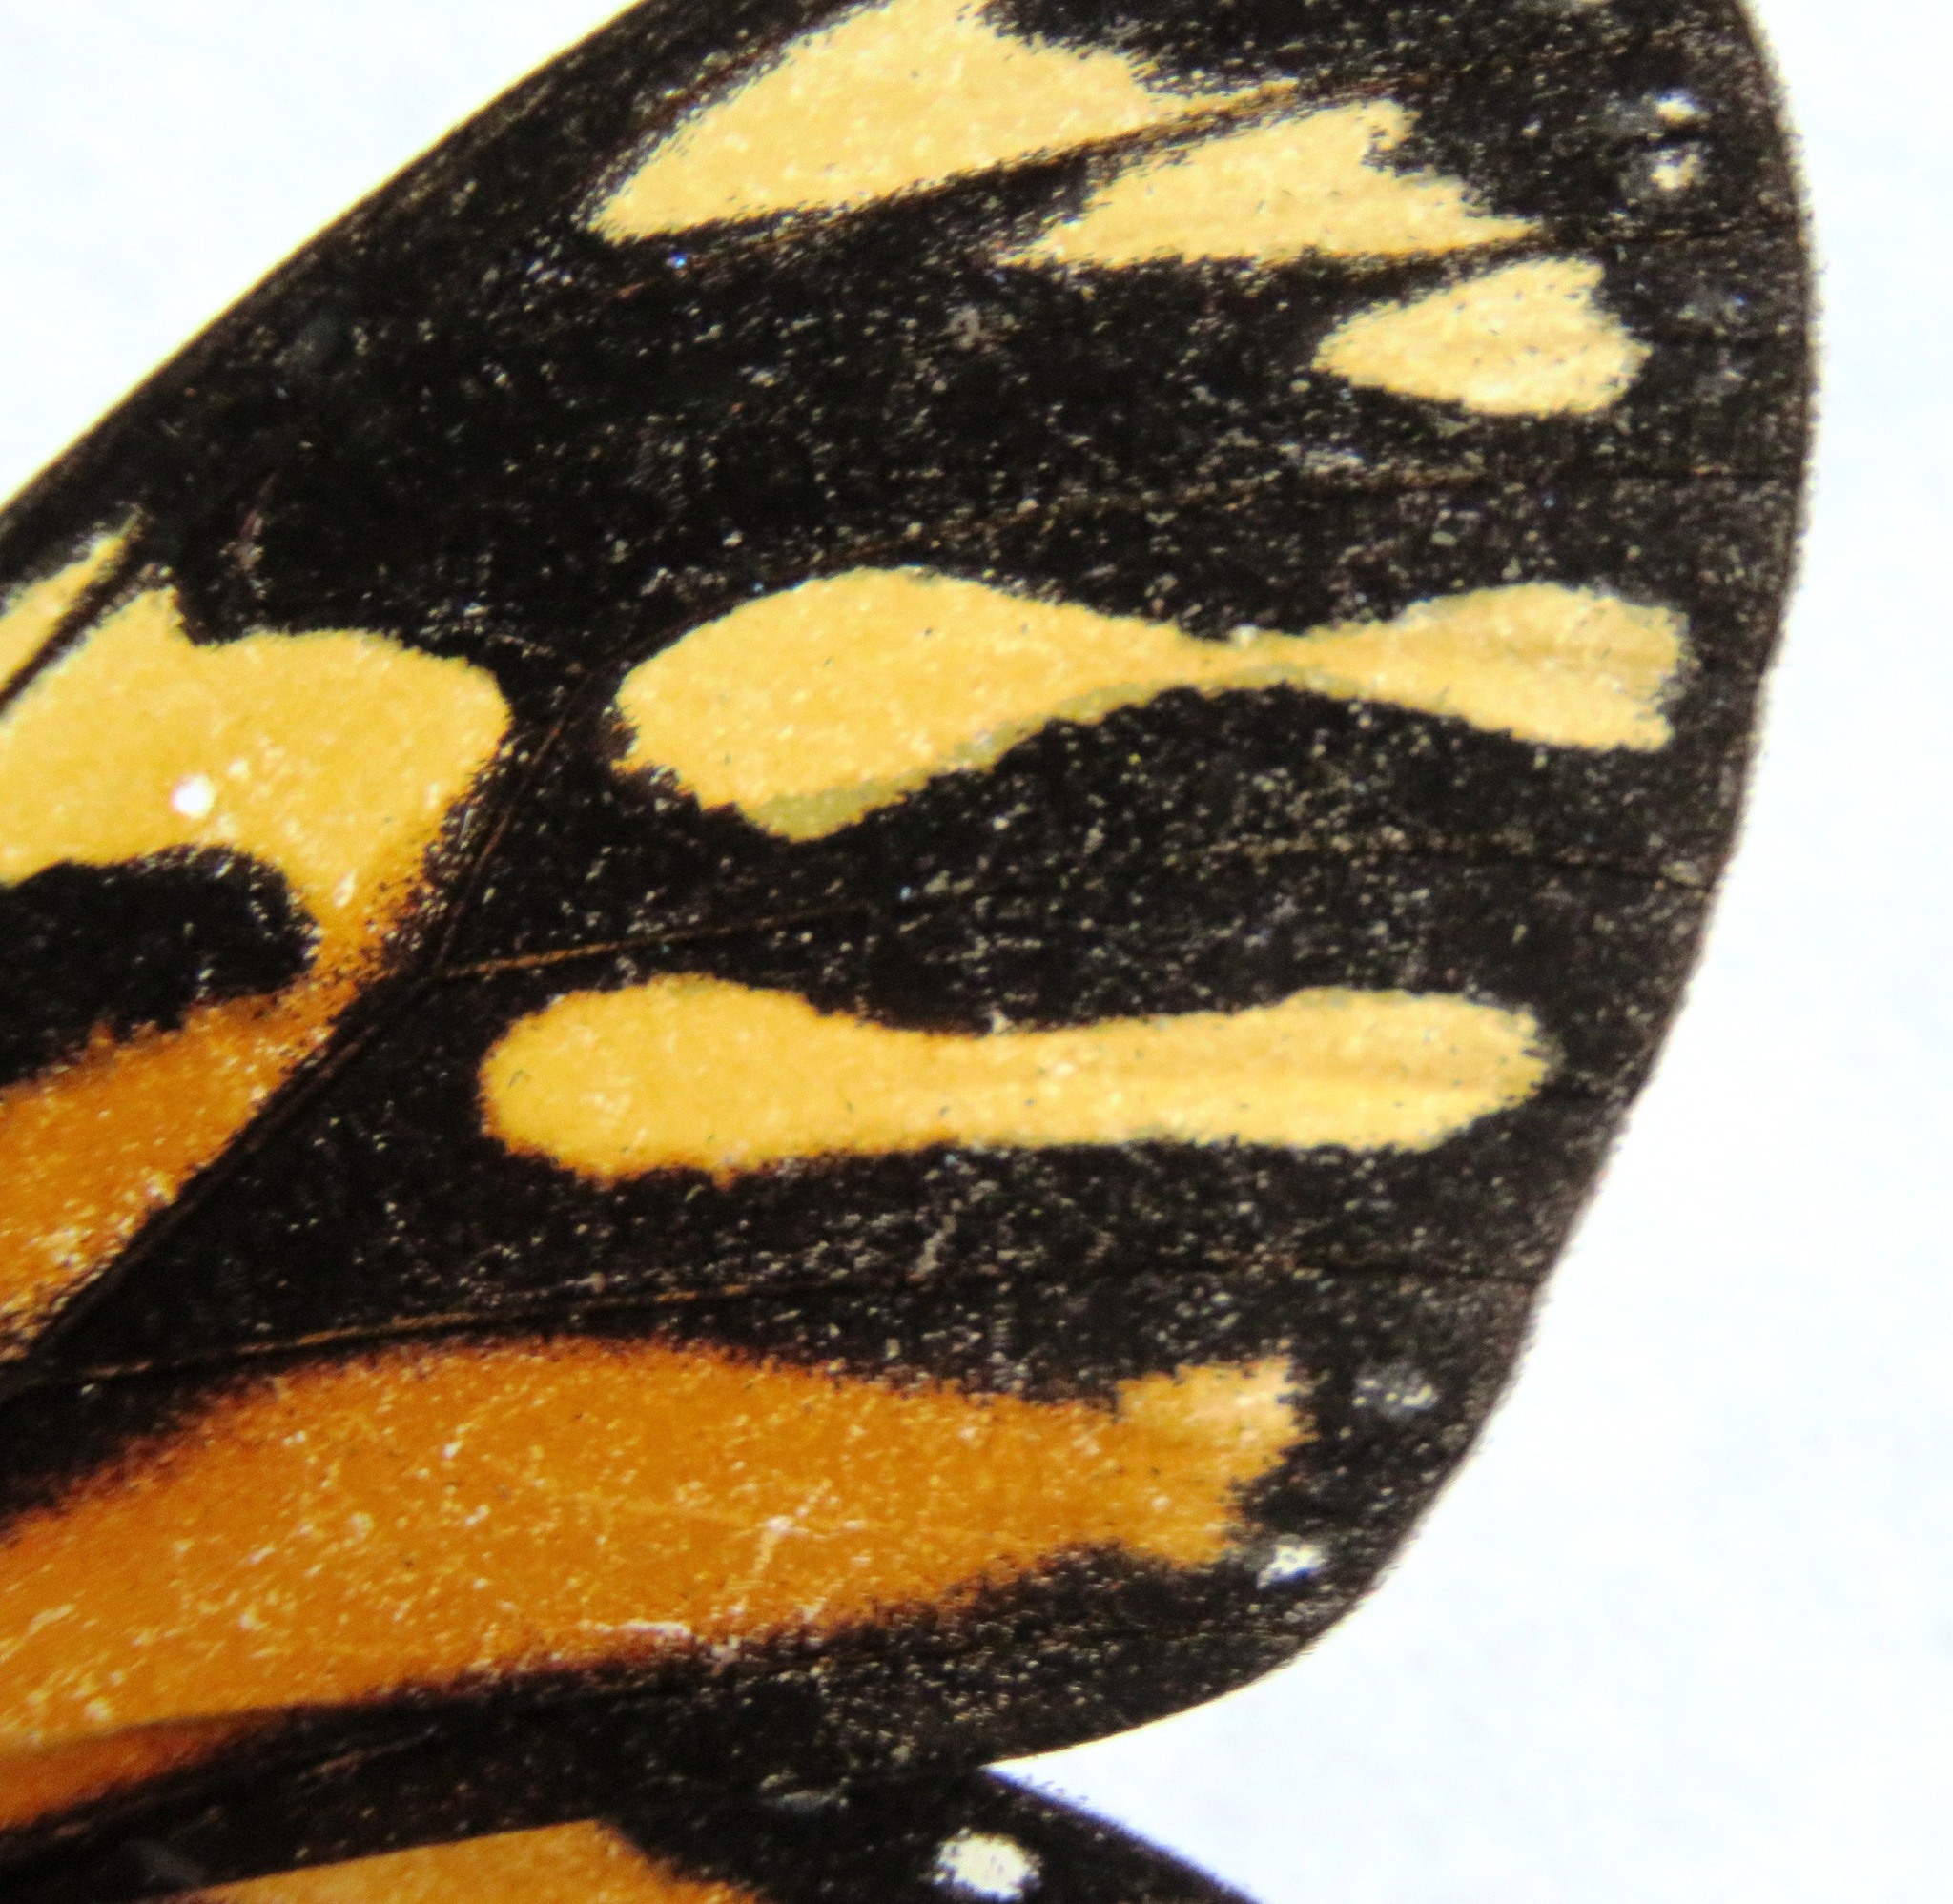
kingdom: Animalia
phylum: Arthropoda
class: Insecta
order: Lepidoptera
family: Nymphalidae
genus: Lycorea
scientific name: Lycorea cleobaea
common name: Tiger mimic-queen
